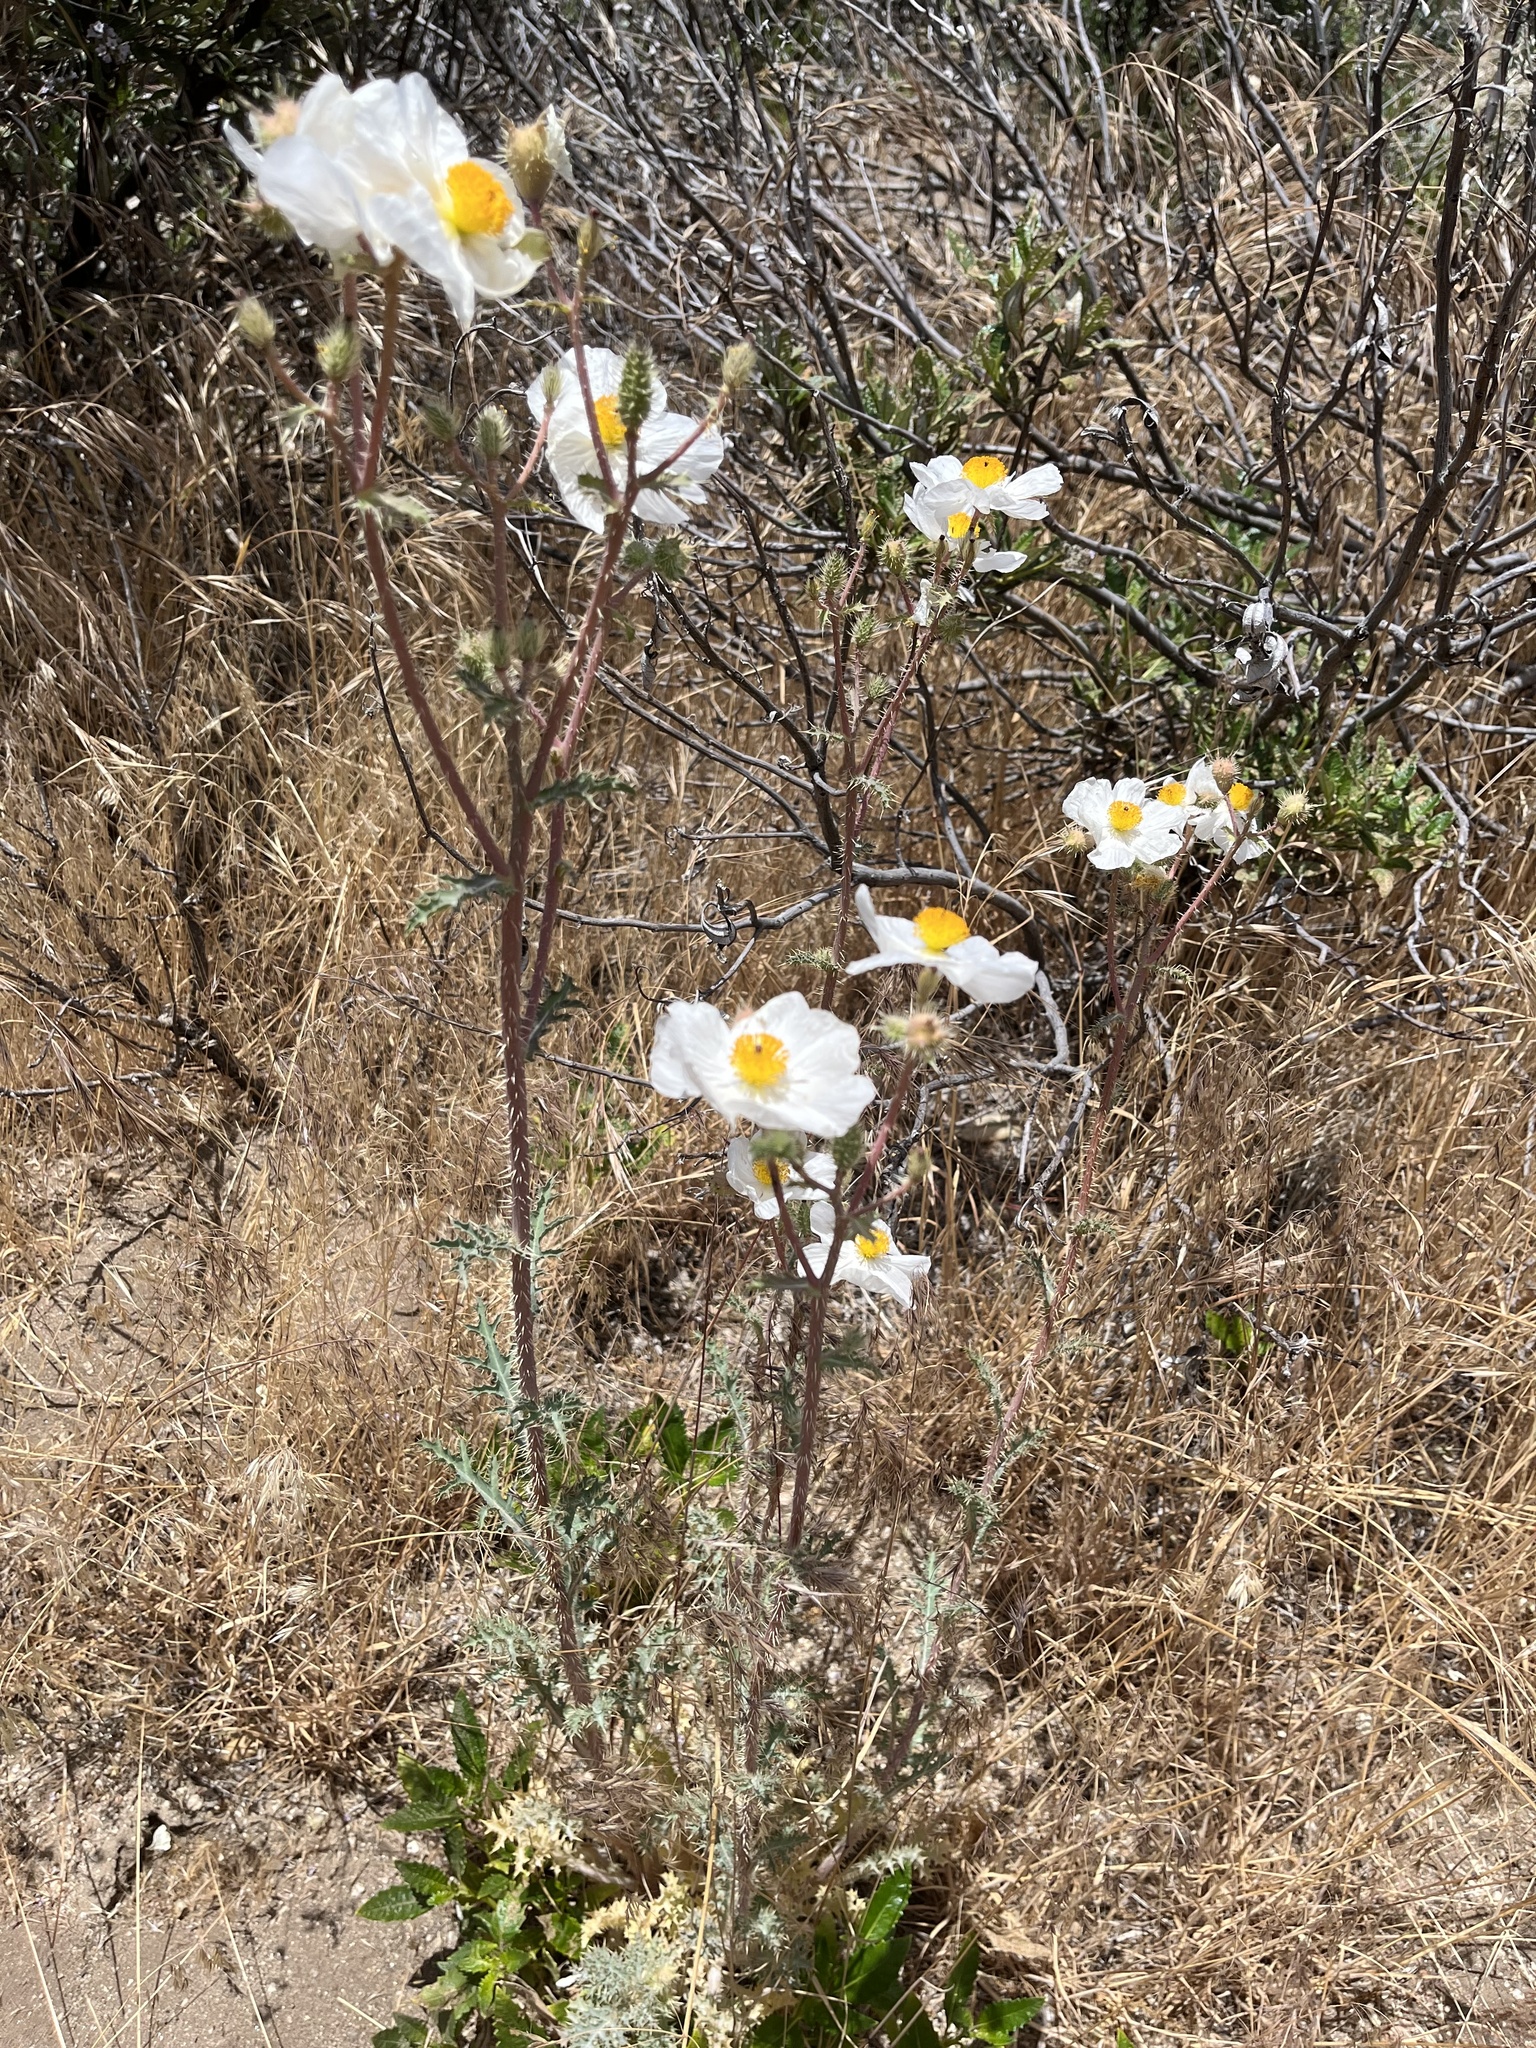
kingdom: Plantae
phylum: Tracheophyta
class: Magnoliopsida
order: Ranunculales
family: Papaveraceae
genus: Argemone
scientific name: Argemone munita
